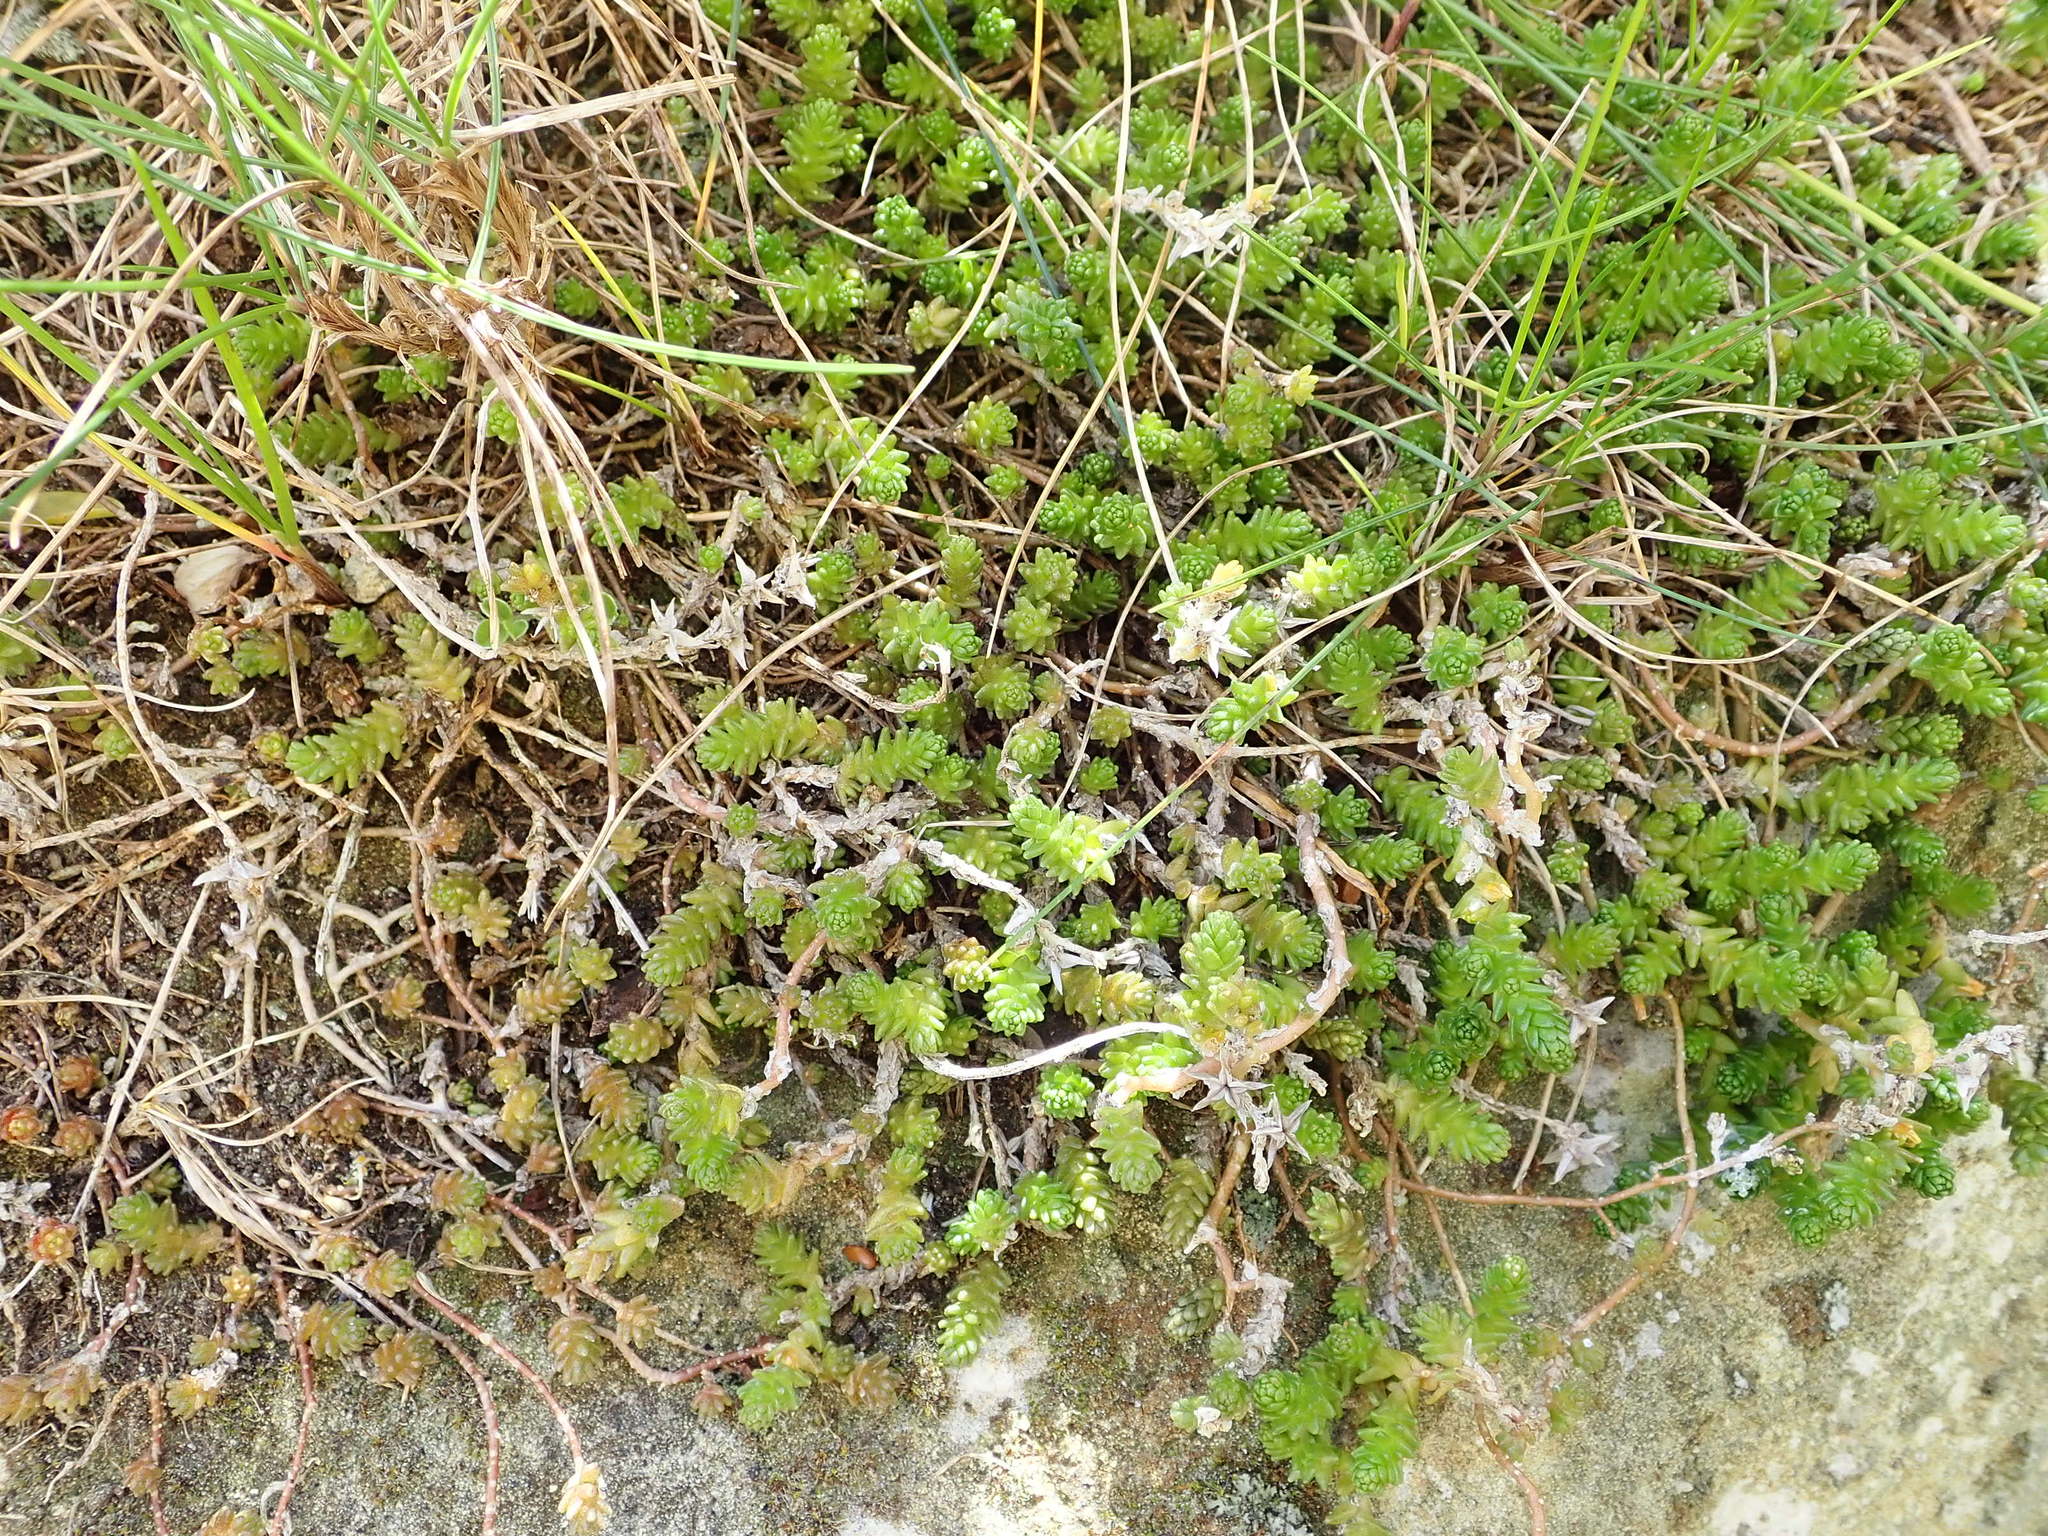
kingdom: Plantae
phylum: Tracheophyta
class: Magnoliopsida
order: Saxifragales
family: Crassulaceae
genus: Sedum
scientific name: Sedum acre
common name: Biting stonecrop
